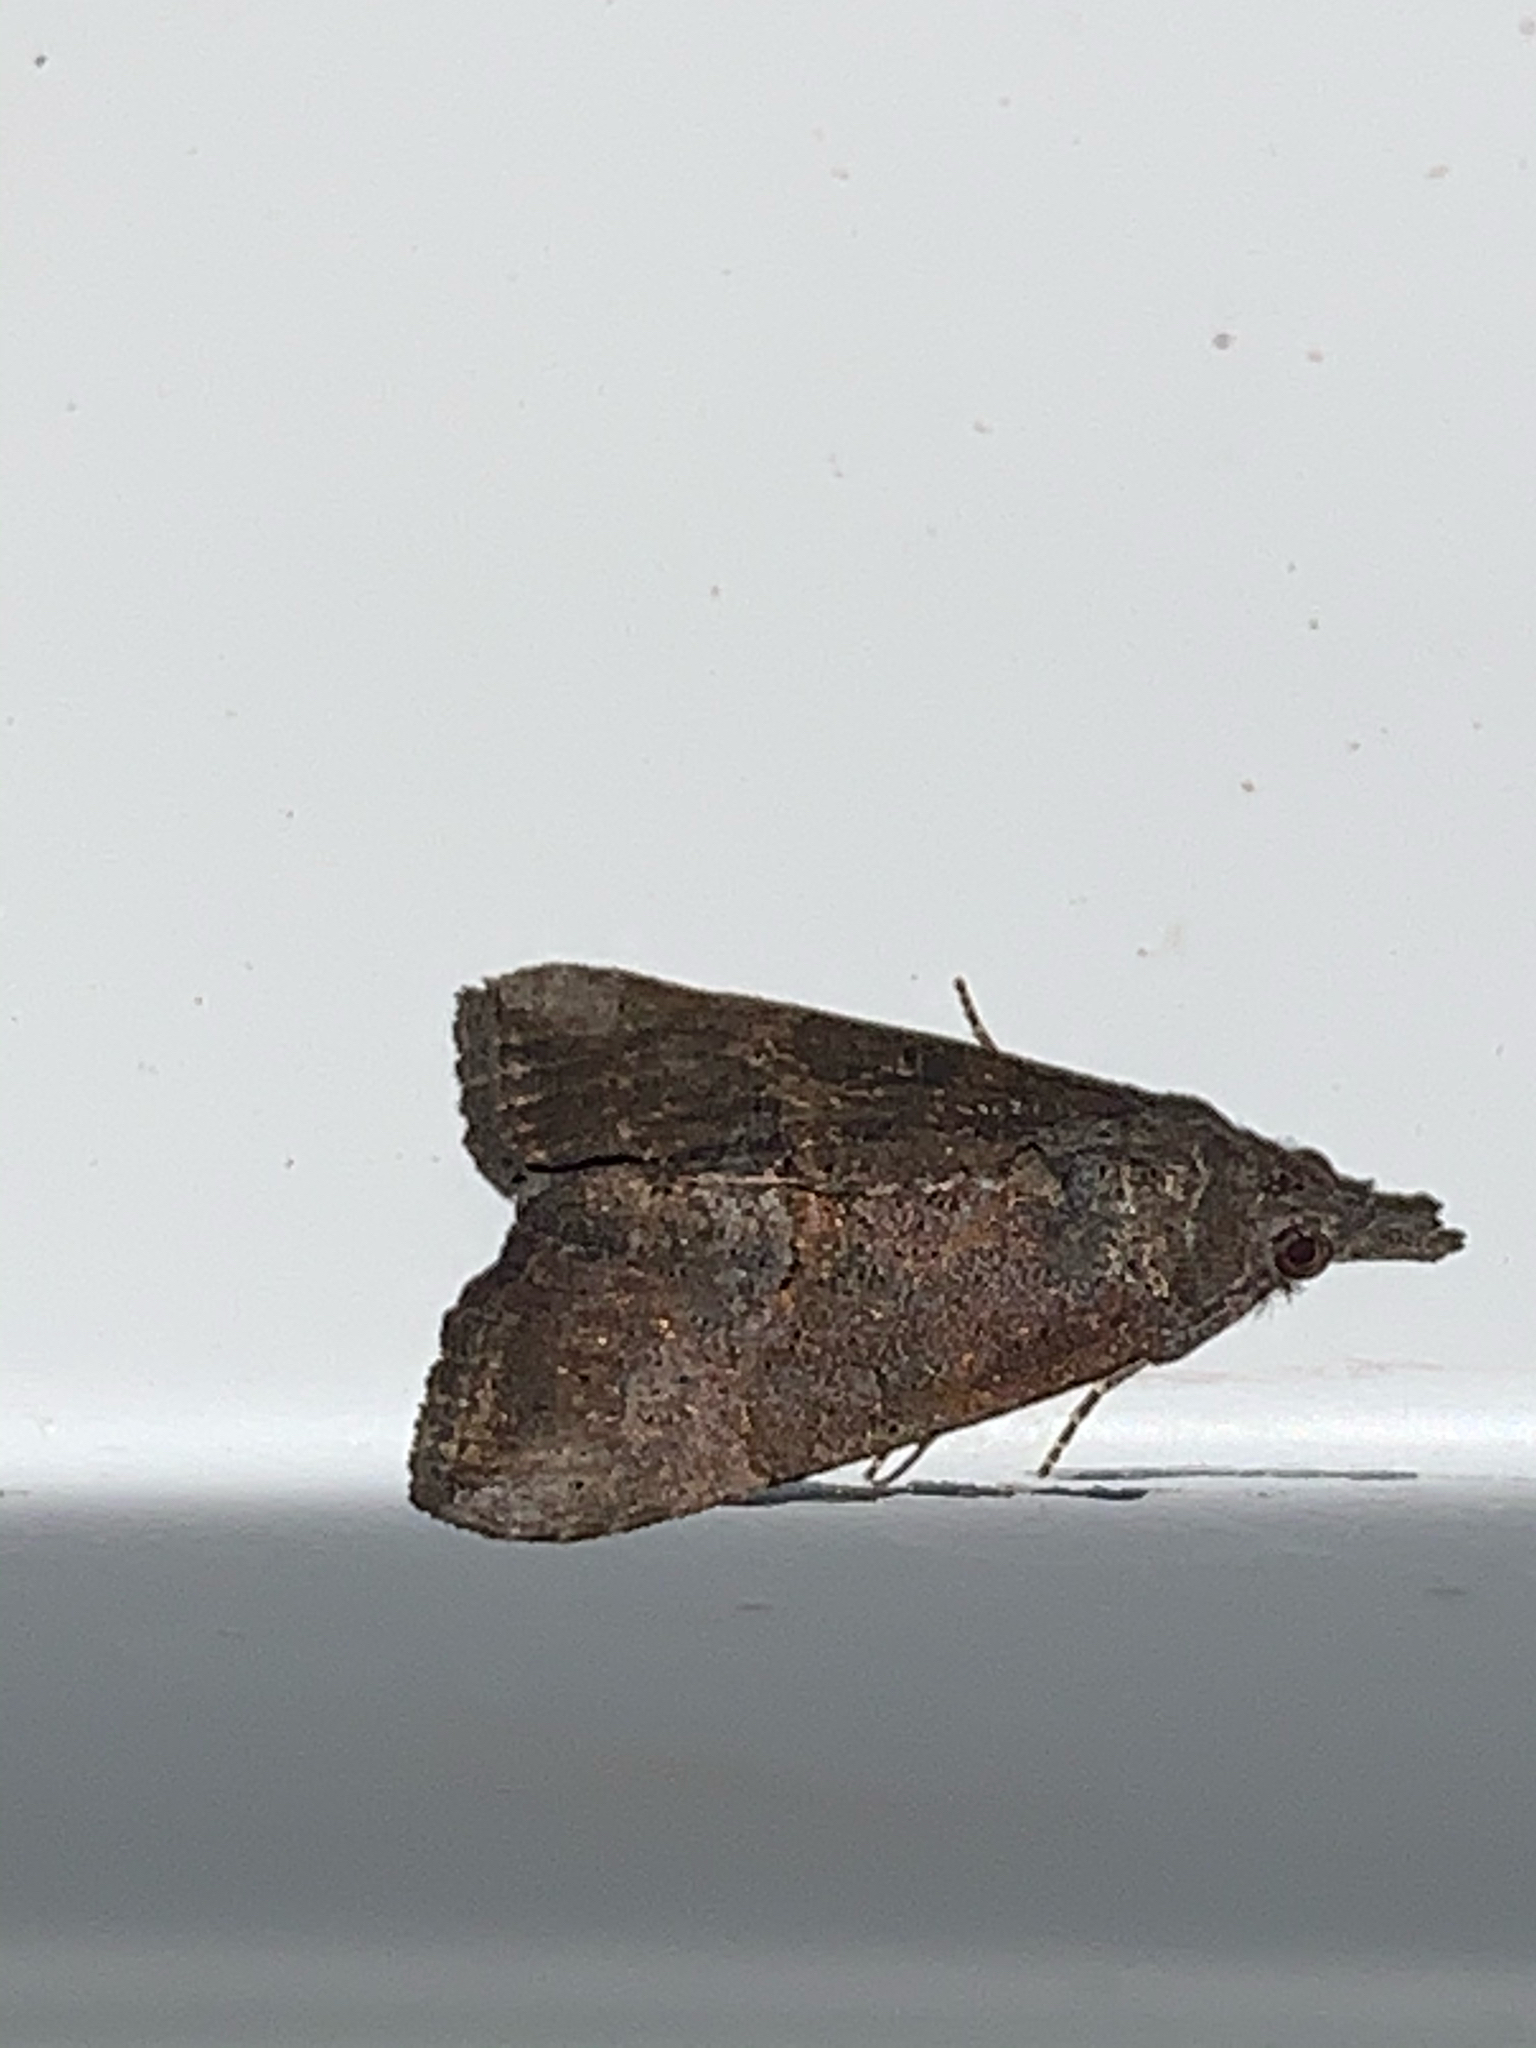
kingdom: Animalia
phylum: Arthropoda
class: Insecta
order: Lepidoptera
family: Erebidae
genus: Hypena
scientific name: Hypena scabra
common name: Green cloverworm
